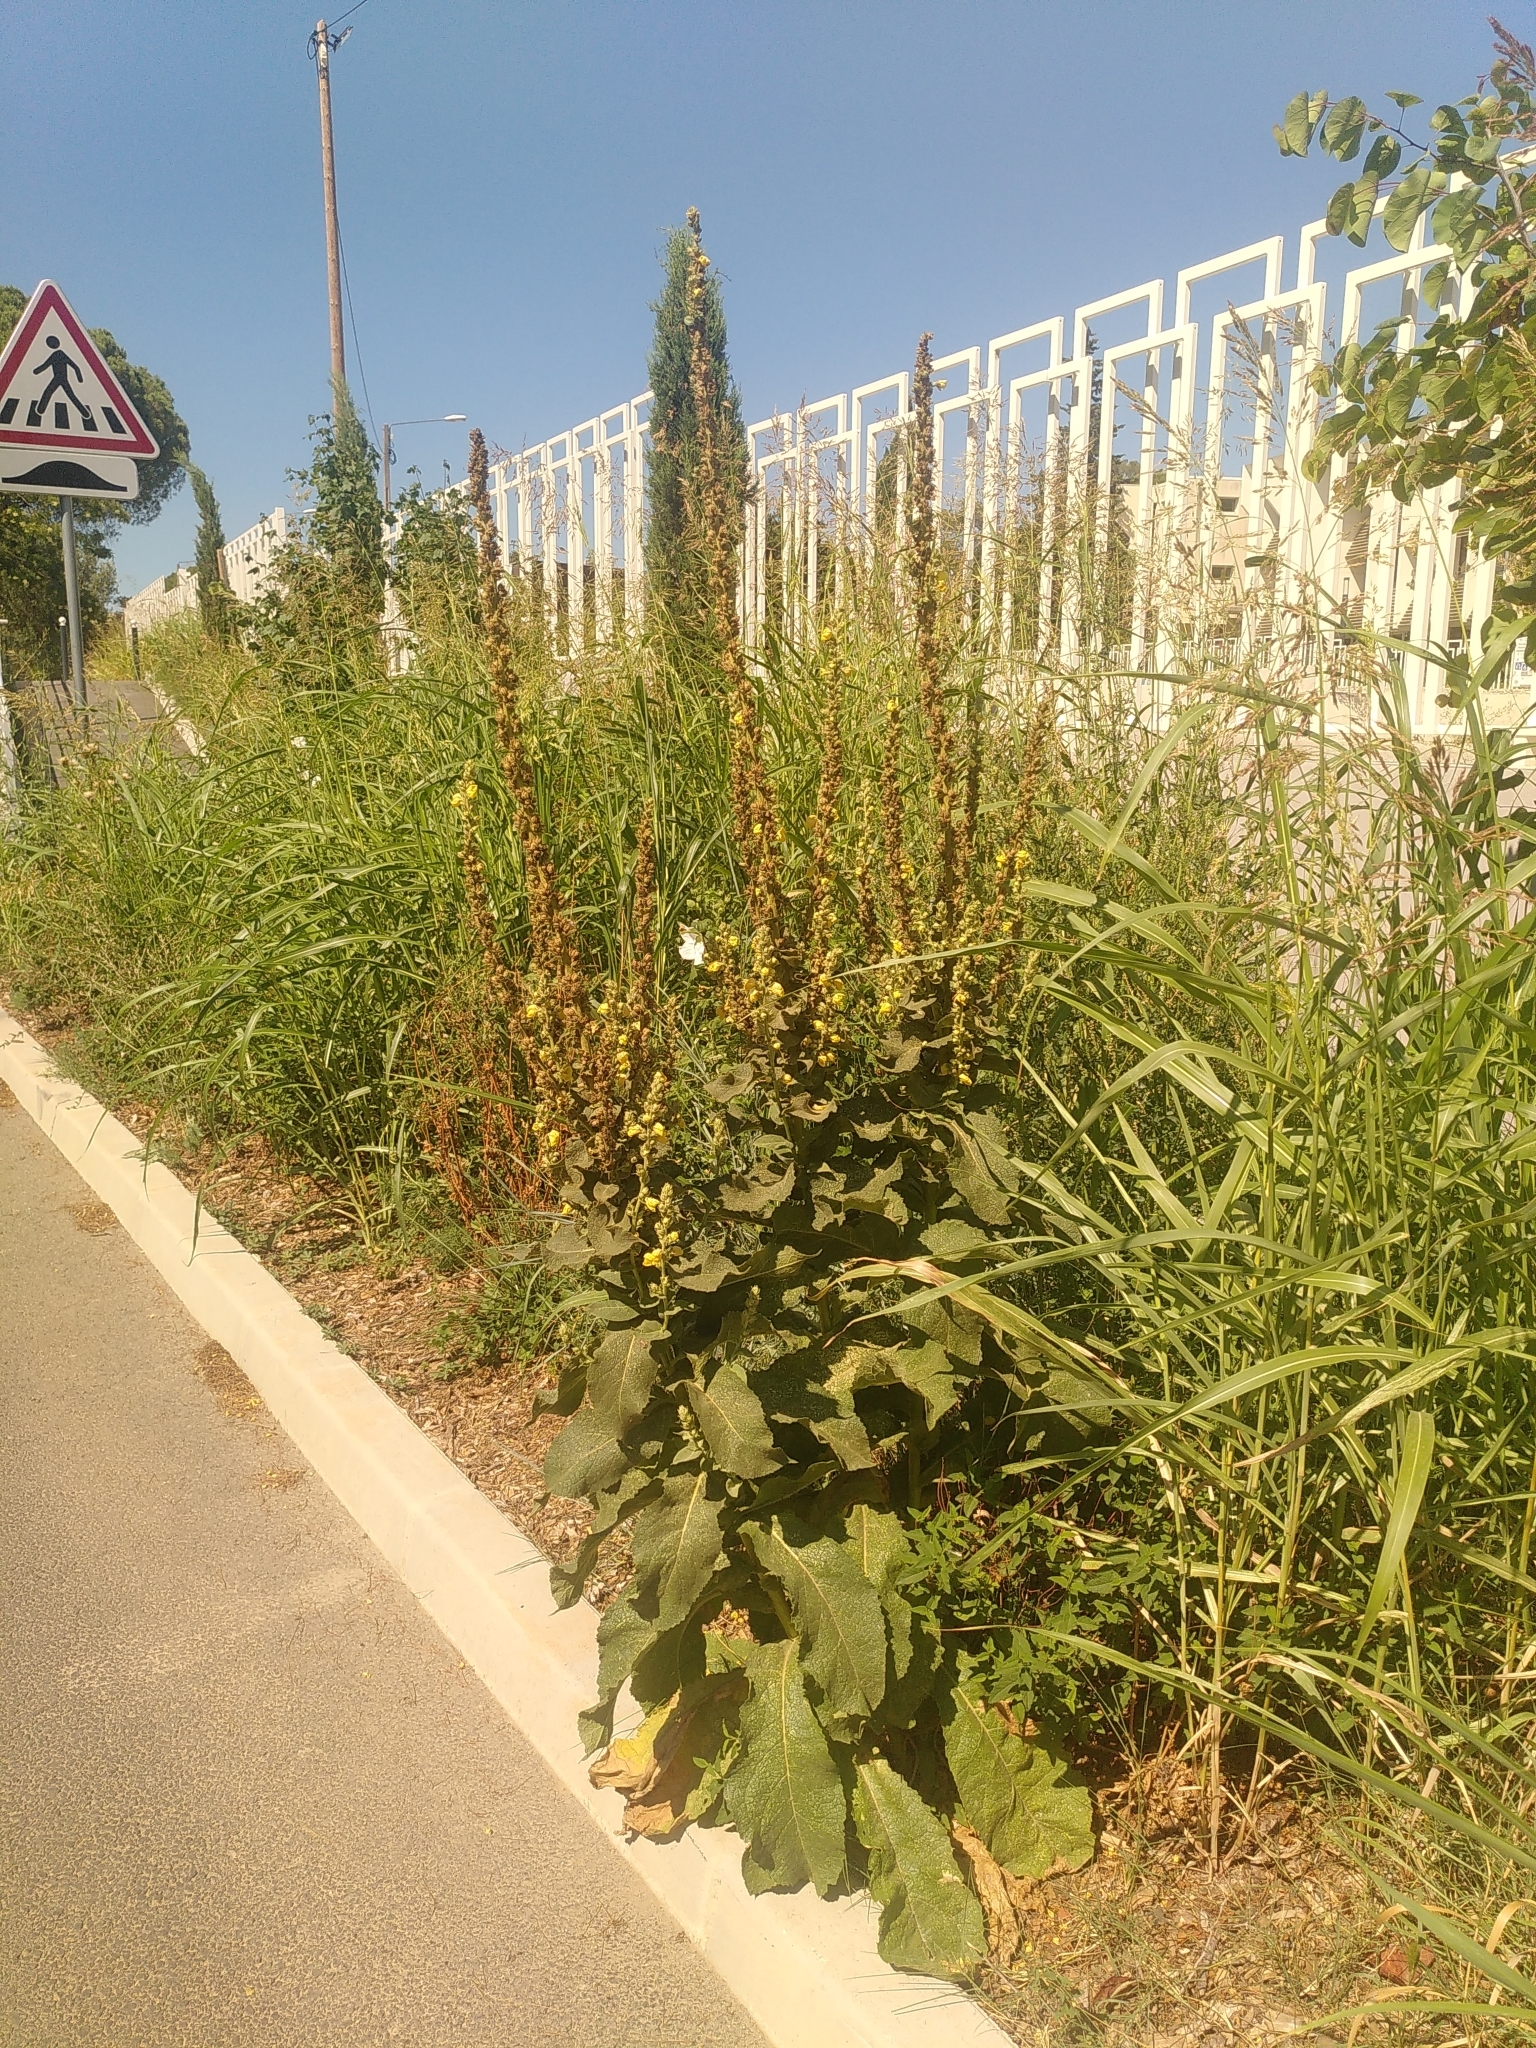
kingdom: Plantae
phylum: Tracheophyta
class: Magnoliopsida
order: Lamiales
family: Scrophulariaceae
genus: Verbascum
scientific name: Verbascum phlomoides
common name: Orange mullein
